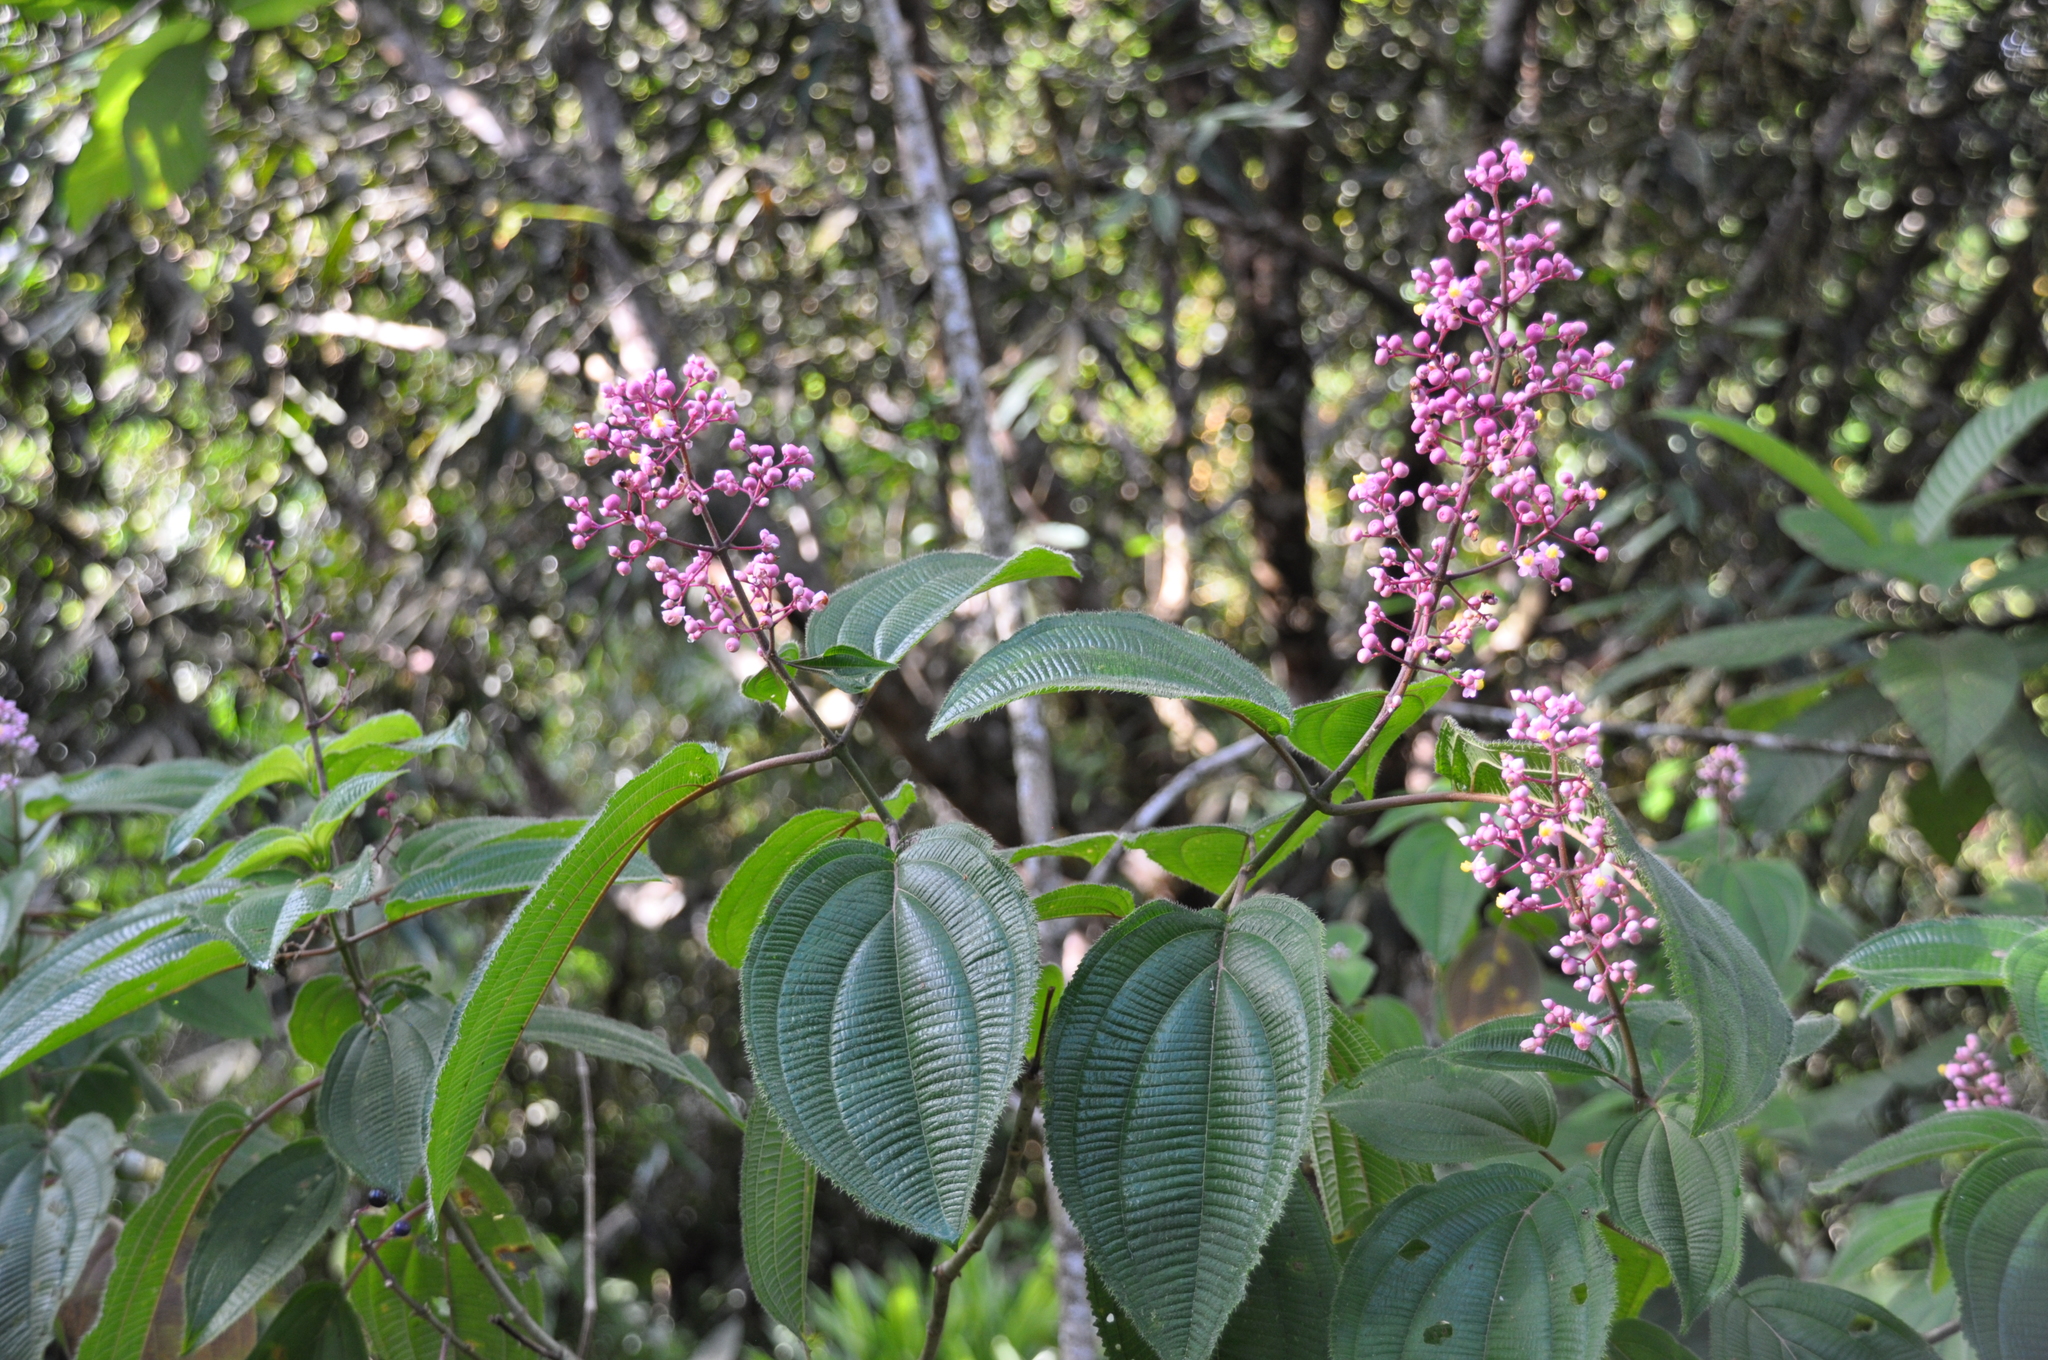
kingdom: Plantae
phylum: Tracheophyta
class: Magnoliopsida
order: Myrtales
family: Melastomataceae
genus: Miconia
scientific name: Miconia subcrustulata
